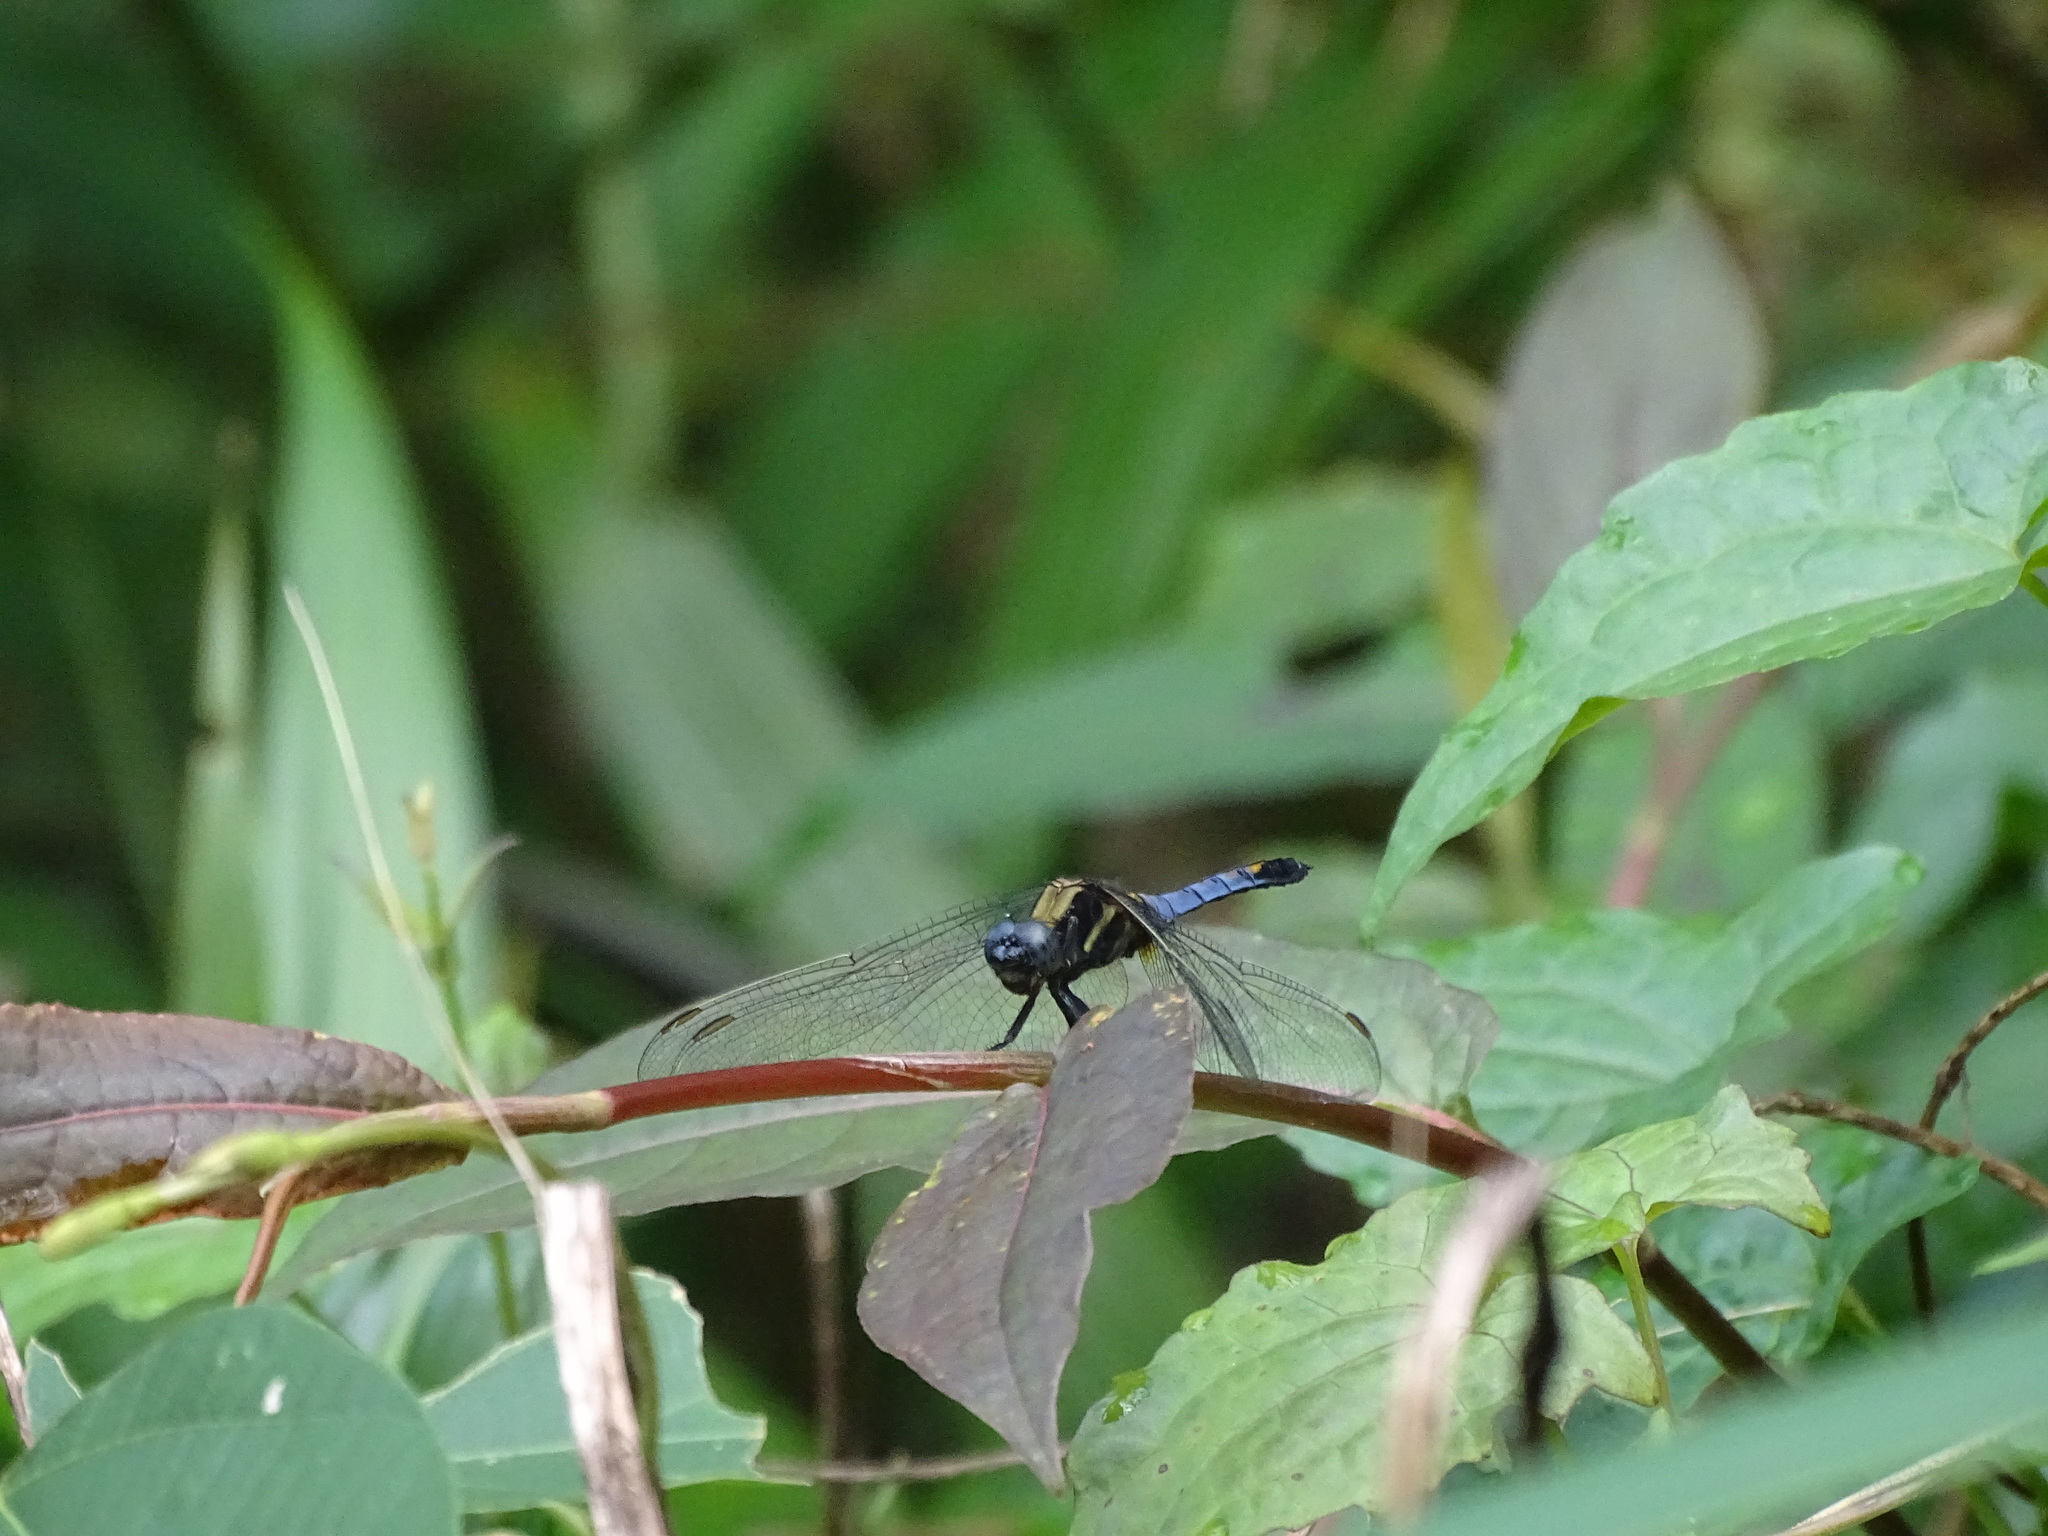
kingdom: Animalia
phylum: Arthropoda
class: Insecta
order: Odonata
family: Libellulidae
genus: Orthetrum
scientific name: Orthetrum glaucum
